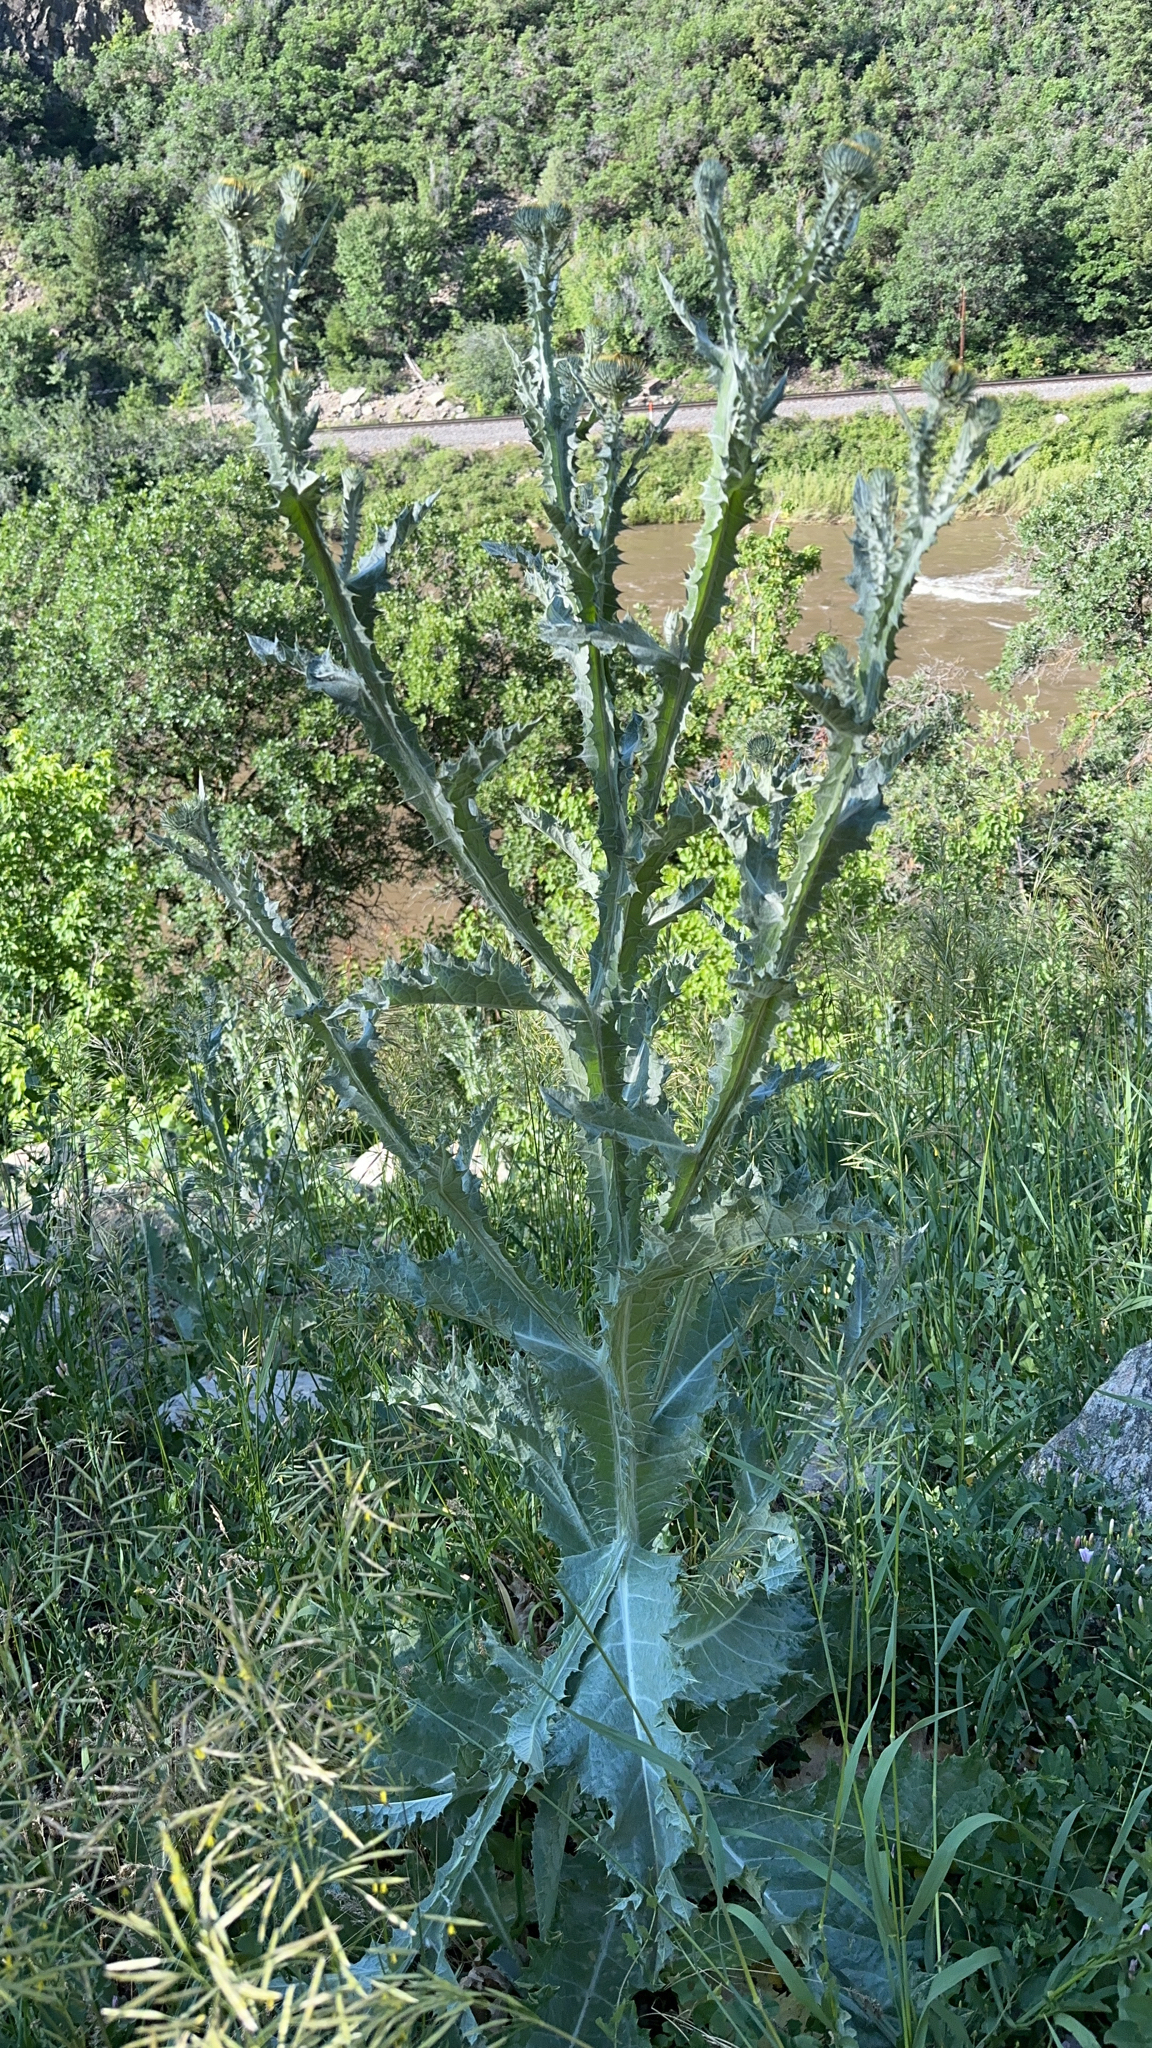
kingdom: Plantae
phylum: Tracheophyta
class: Magnoliopsida
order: Asterales
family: Asteraceae
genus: Onopordum
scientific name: Onopordum acanthium
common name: Scotch thistle
